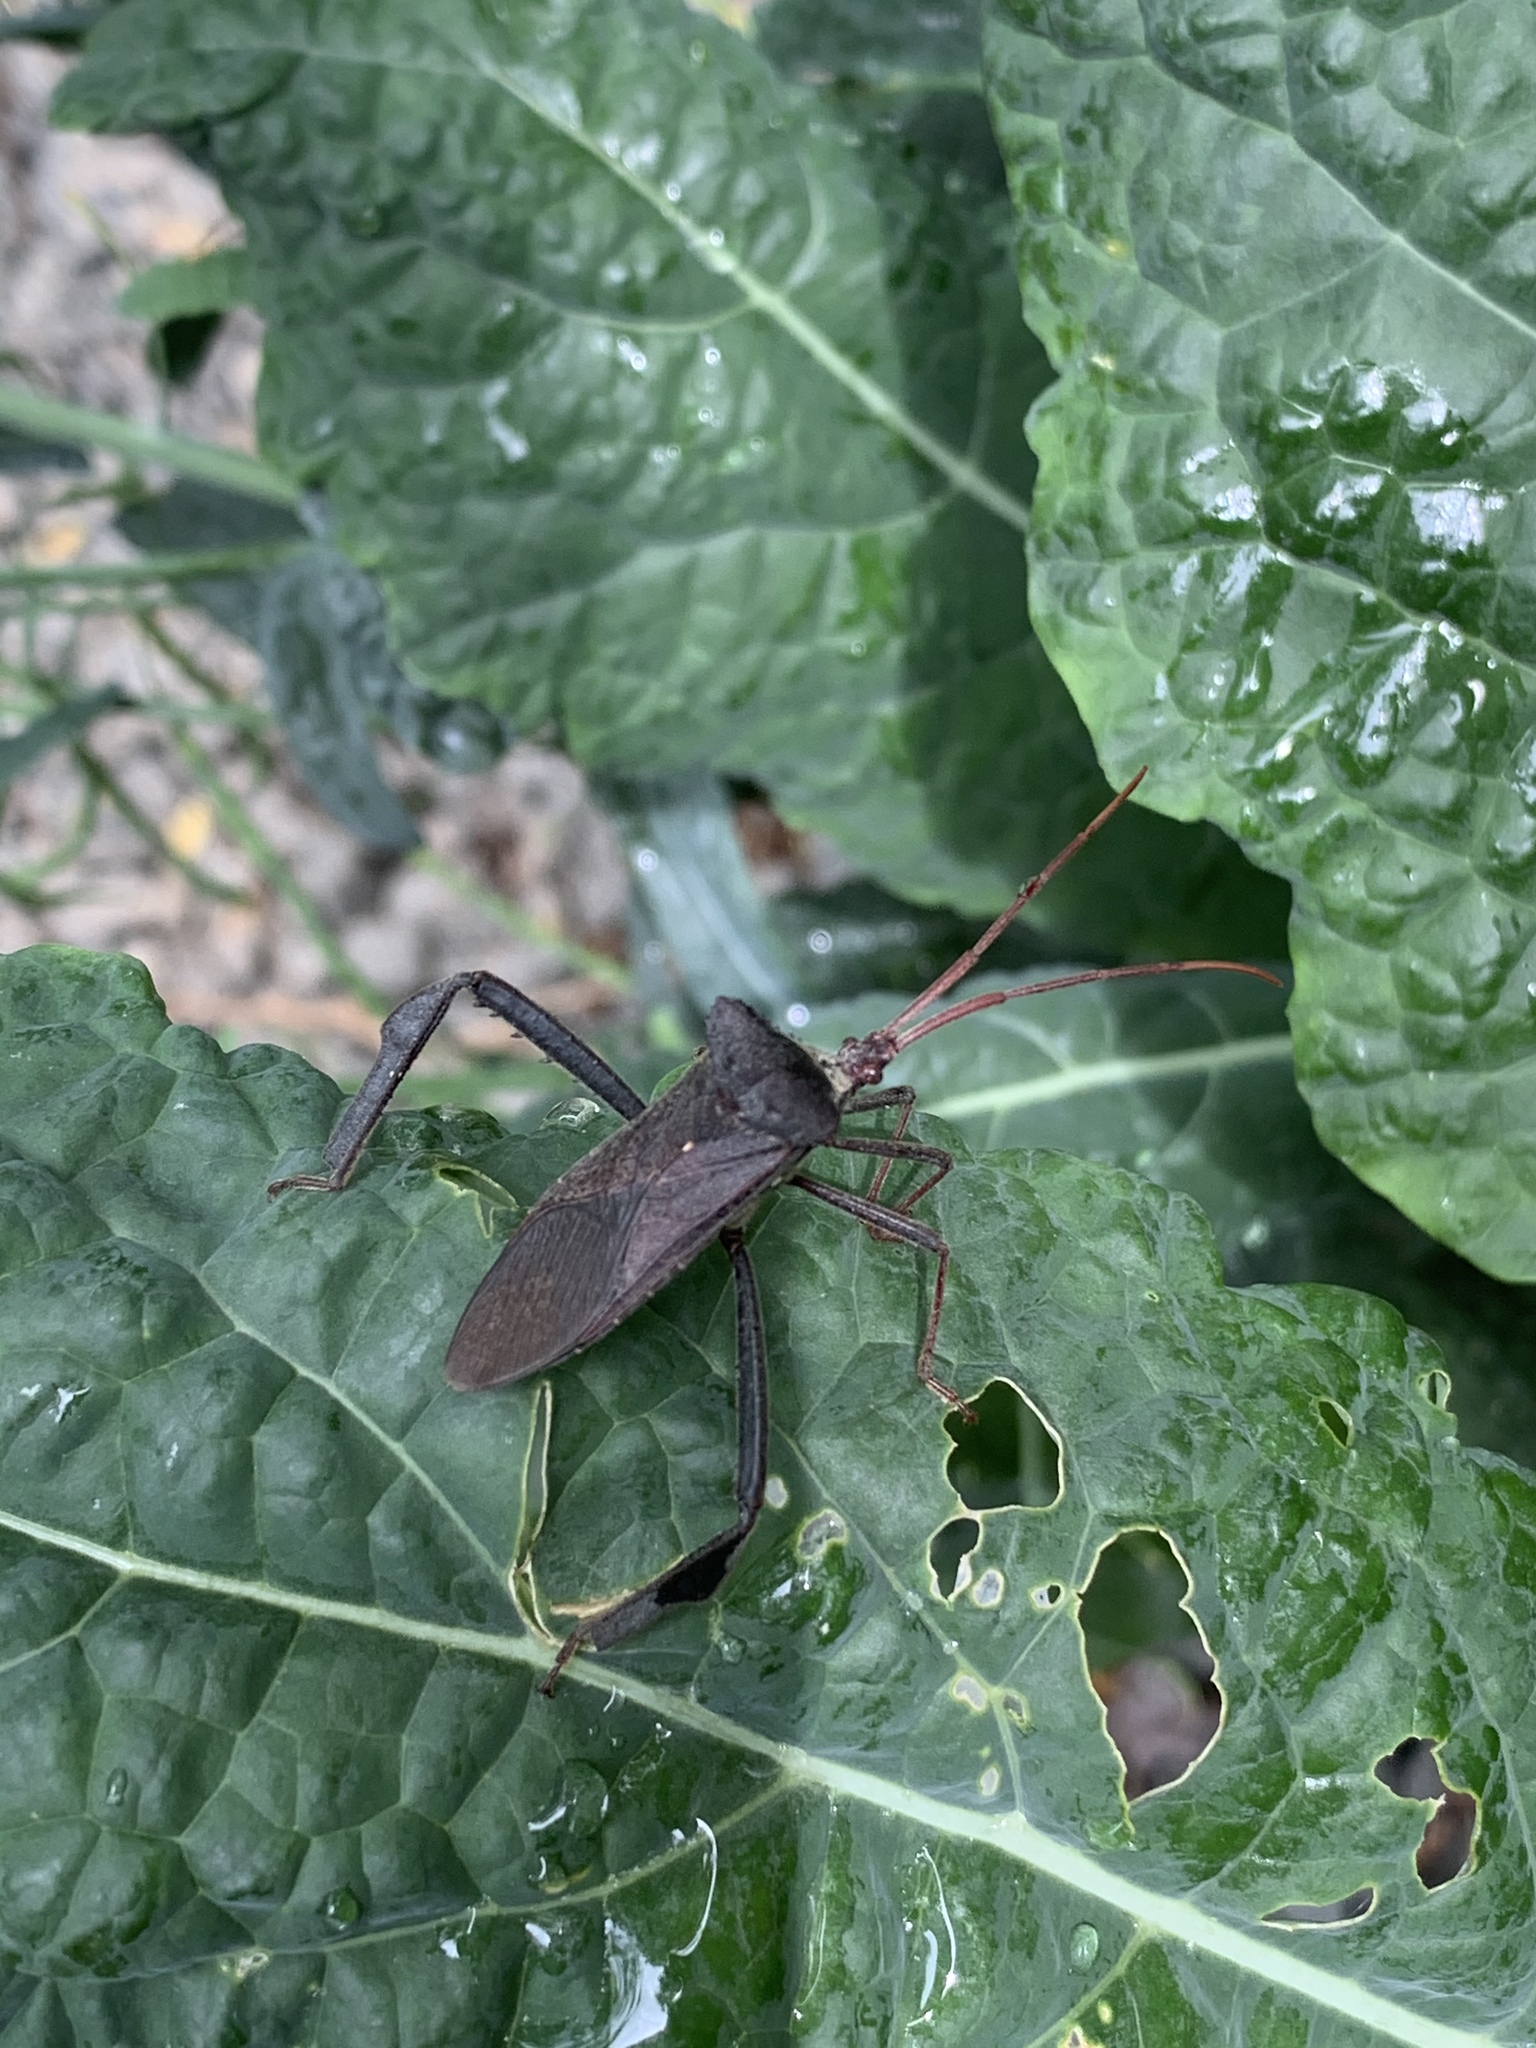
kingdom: Animalia
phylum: Arthropoda
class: Insecta
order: Hemiptera
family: Coreidae
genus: Acanthocephala
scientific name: Acanthocephala declivis
